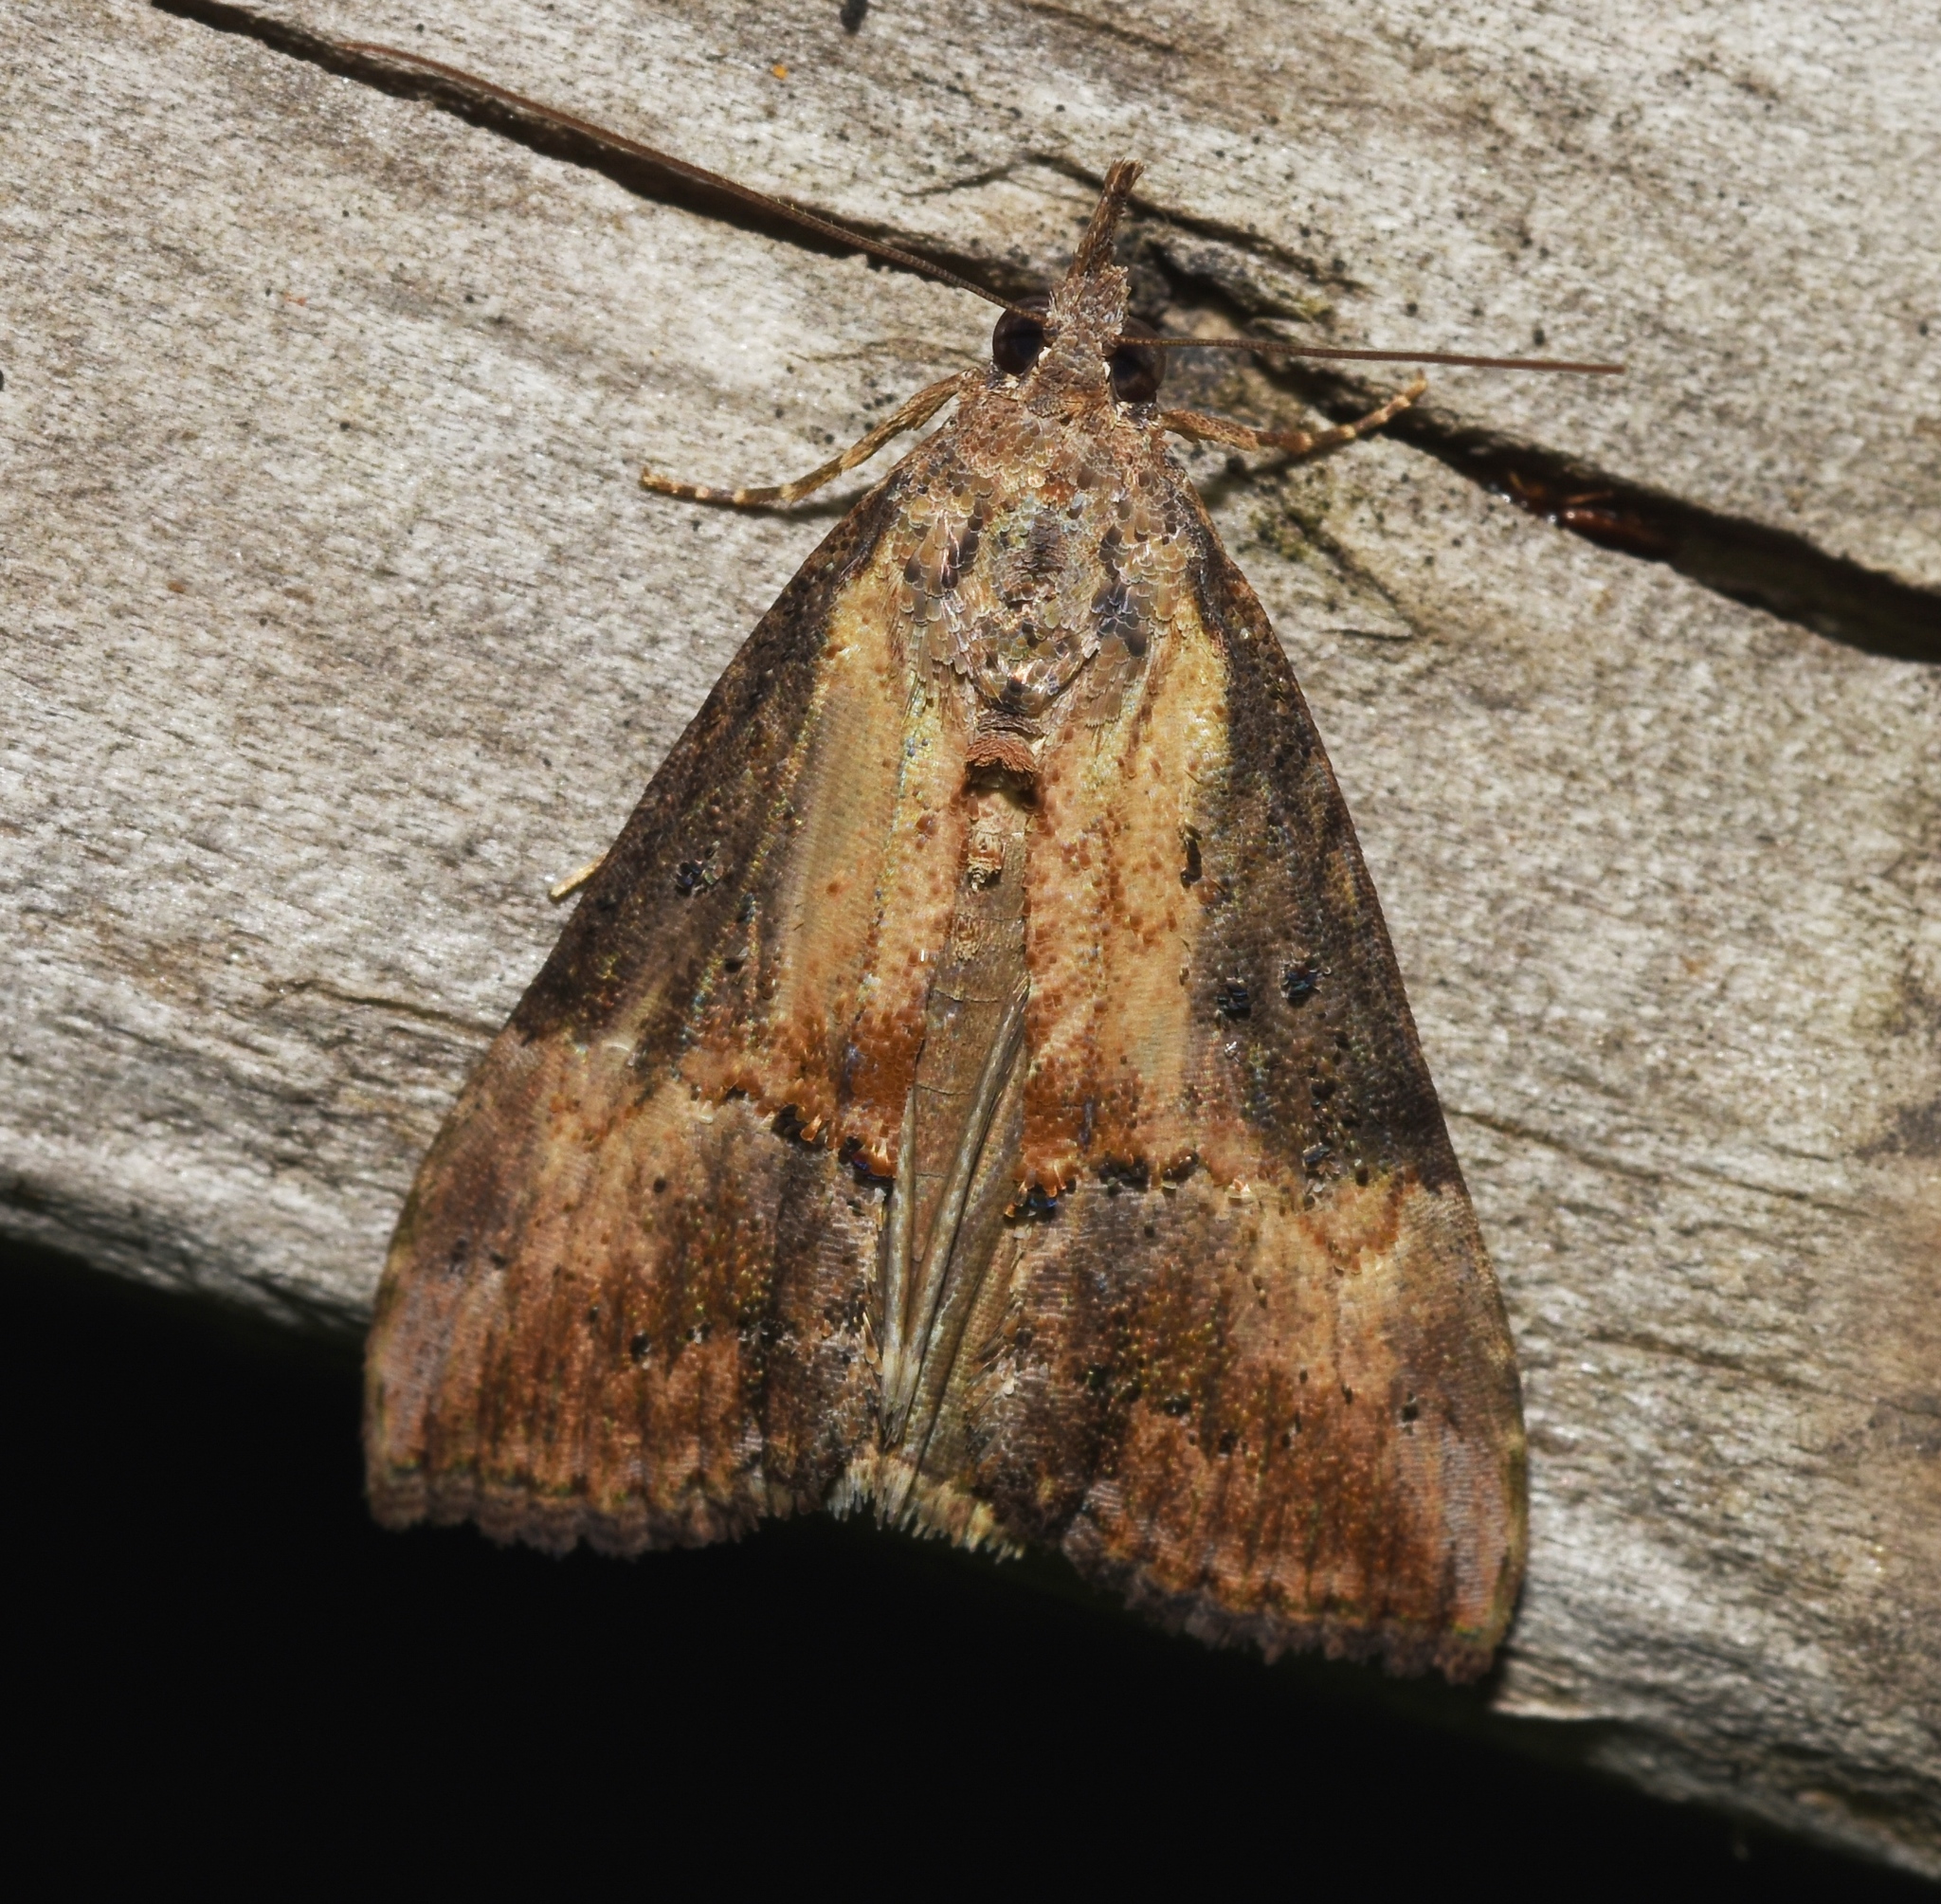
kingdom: Animalia
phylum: Arthropoda
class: Insecta
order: Lepidoptera
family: Erebidae
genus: Hypena
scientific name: Hypena scabra
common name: Green cloverworm
